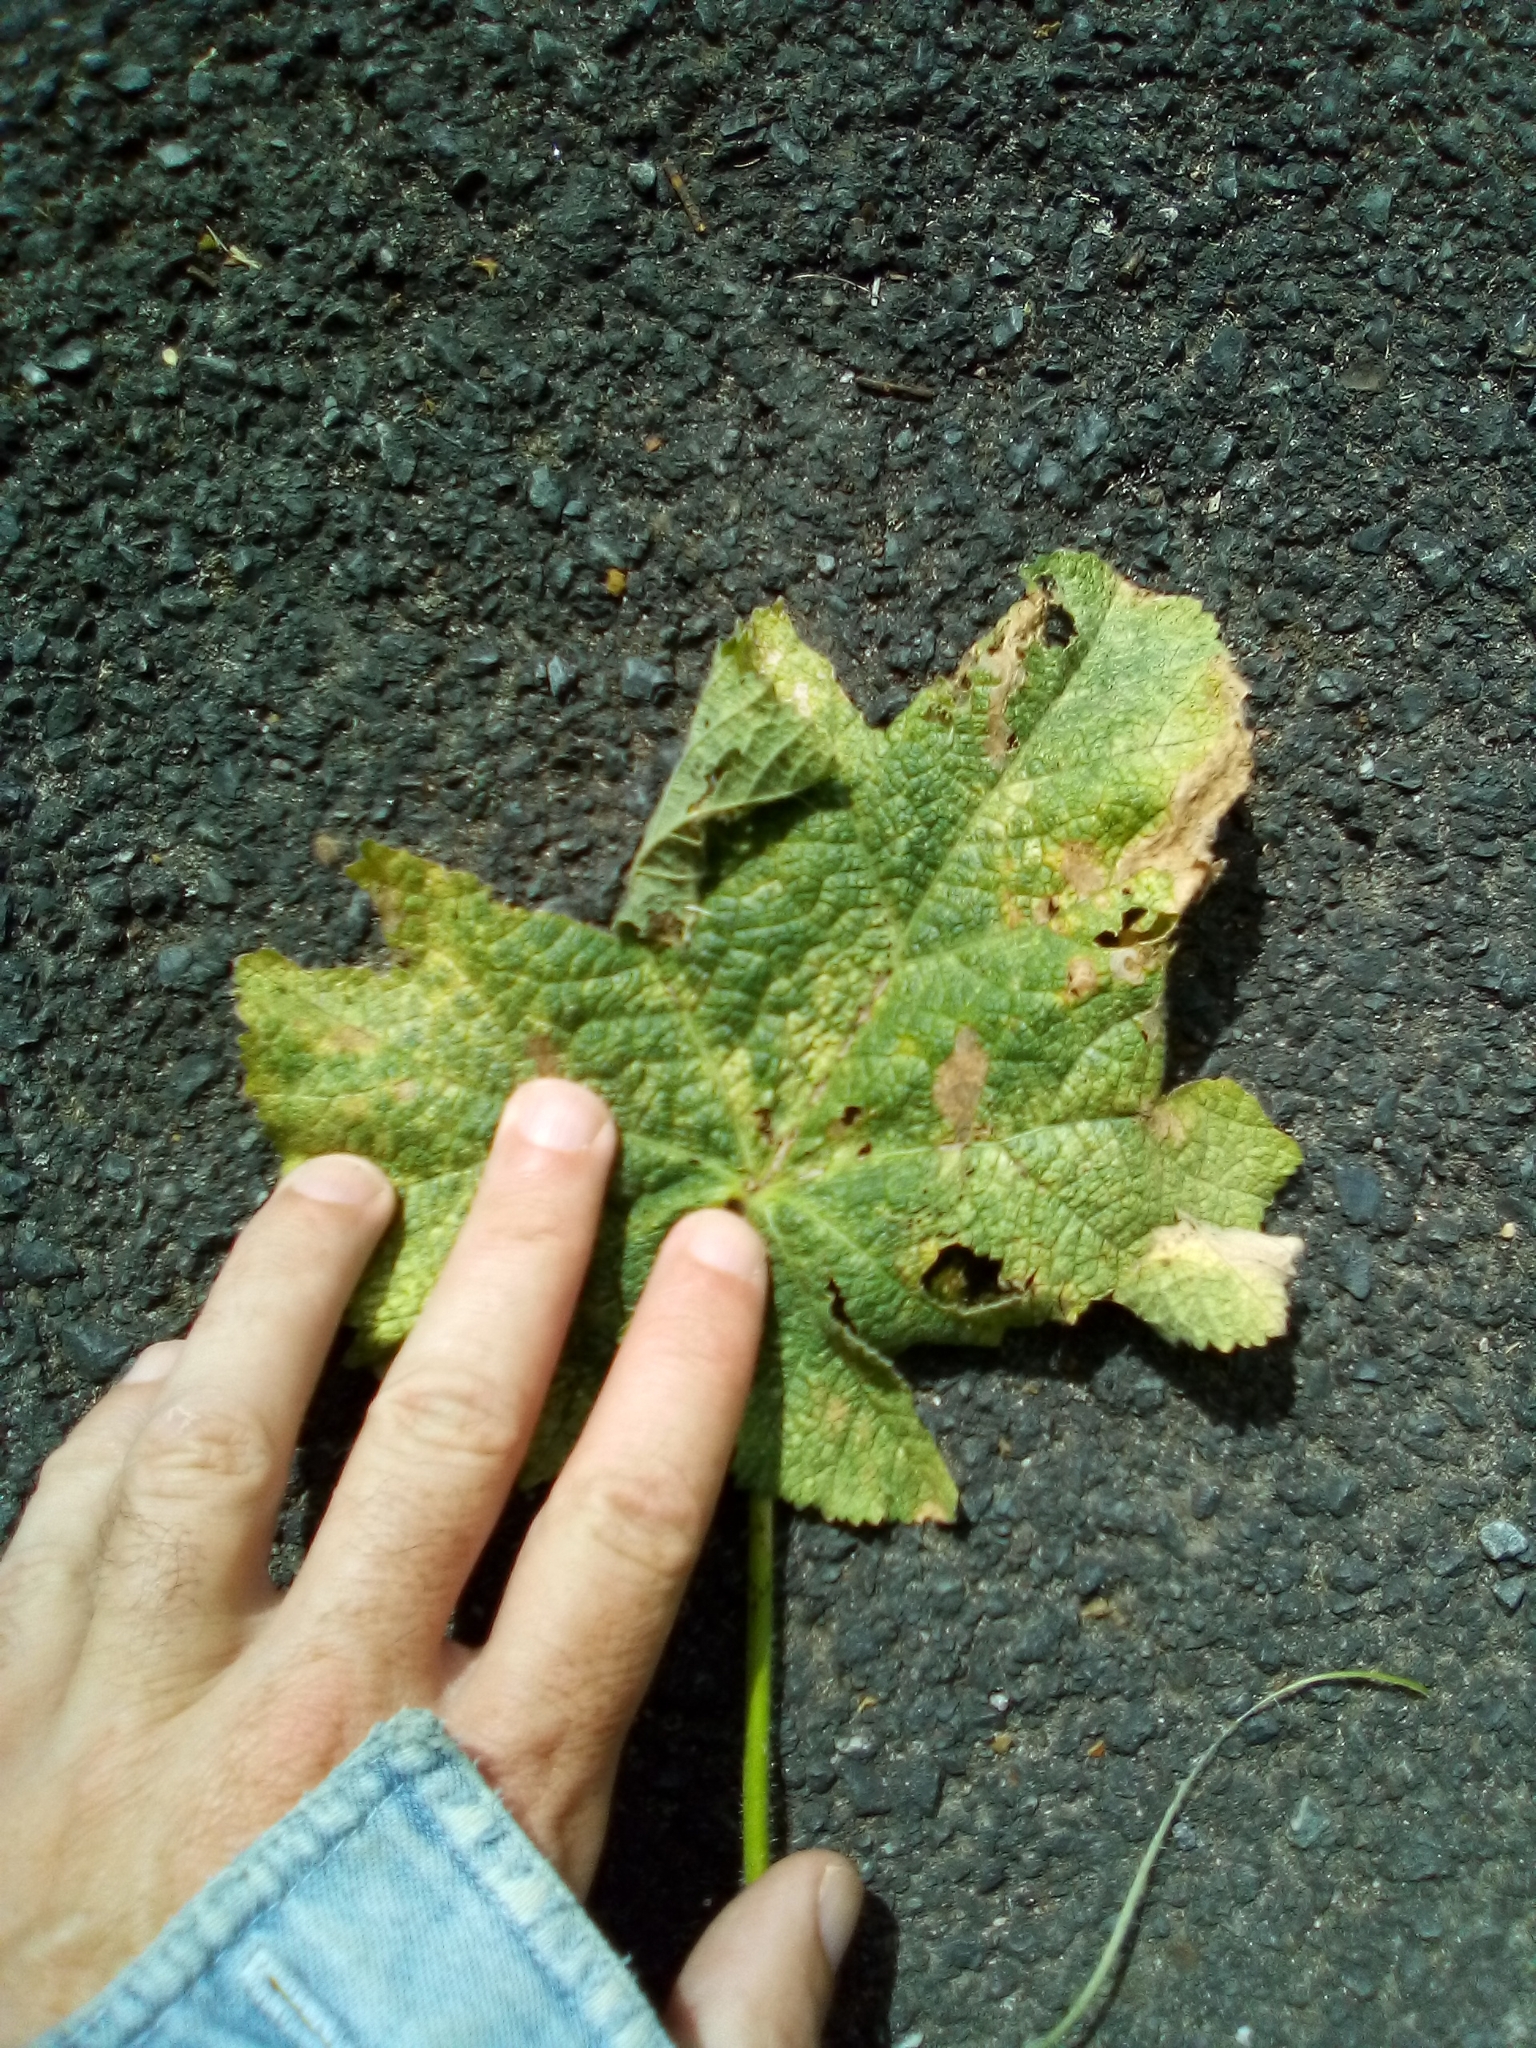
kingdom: Animalia
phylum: Arthropoda
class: Insecta
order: Lepidoptera
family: Crambidae
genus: Haritalodes
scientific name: Haritalodes derogata
